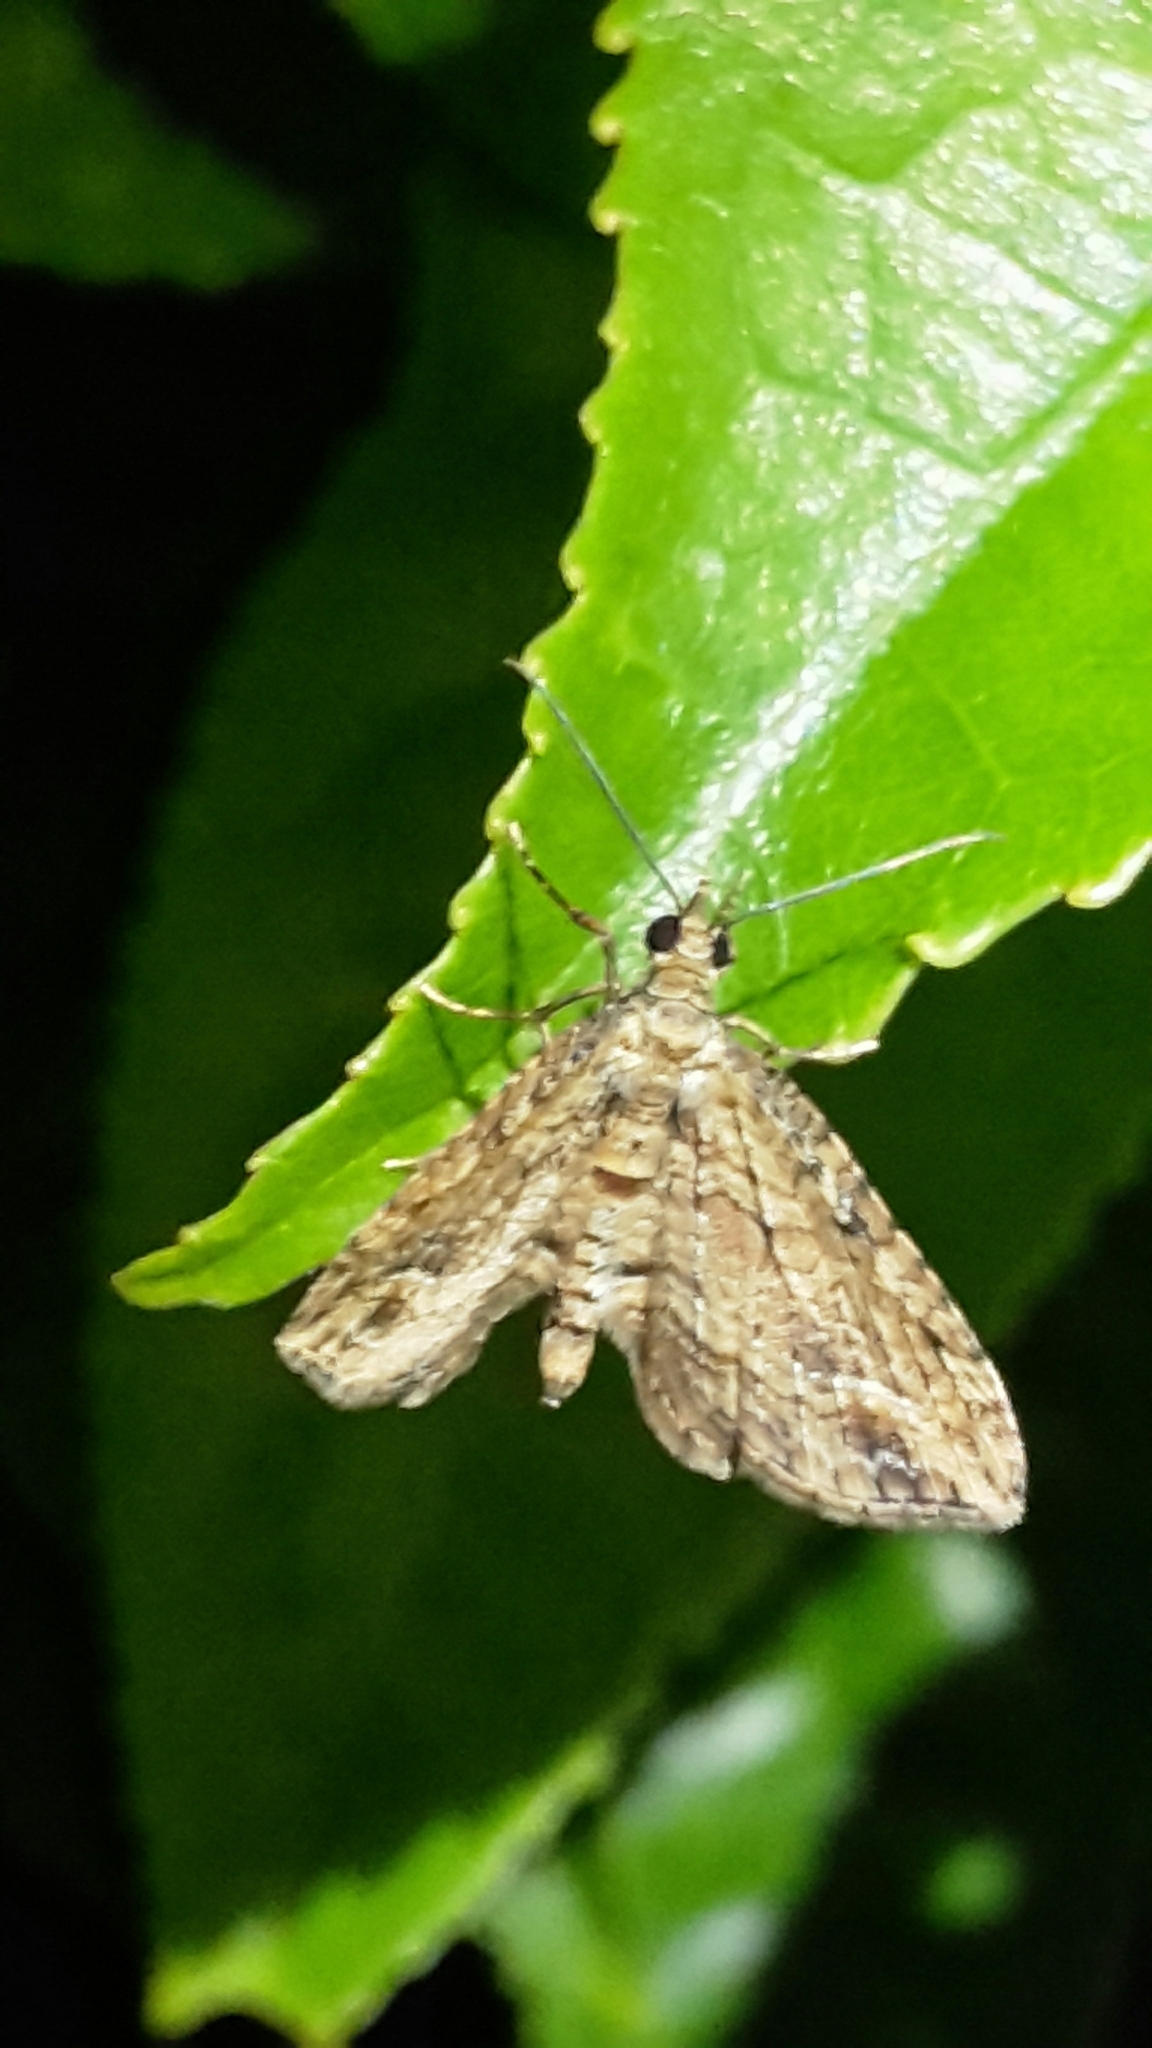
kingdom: Animalia
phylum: Arthropoda
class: Insecta
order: Lepidoptera
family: Geometridae
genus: Chloroclystis
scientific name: Chloroclystis filata
